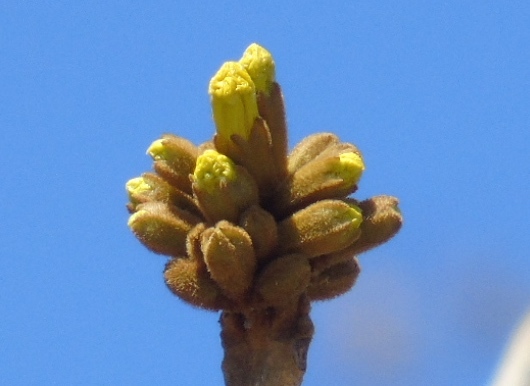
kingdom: Plantae
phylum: Tracheophyta
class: Magnoliopsida
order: Lamiales
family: Bignoniaceae
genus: Handroanthus
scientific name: Handroanthus chrysanthus
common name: Trumpet trees
